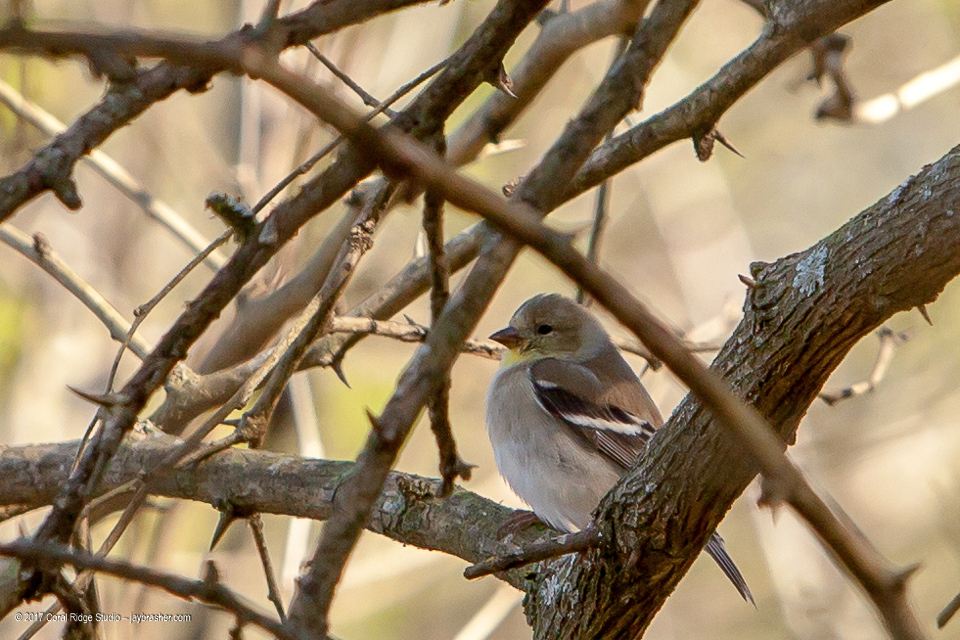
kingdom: Animalia
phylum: Chordata
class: Aves
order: Passeriformes
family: Fringillidae
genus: Spinus
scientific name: Spinus tristis
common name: American goldfinch
